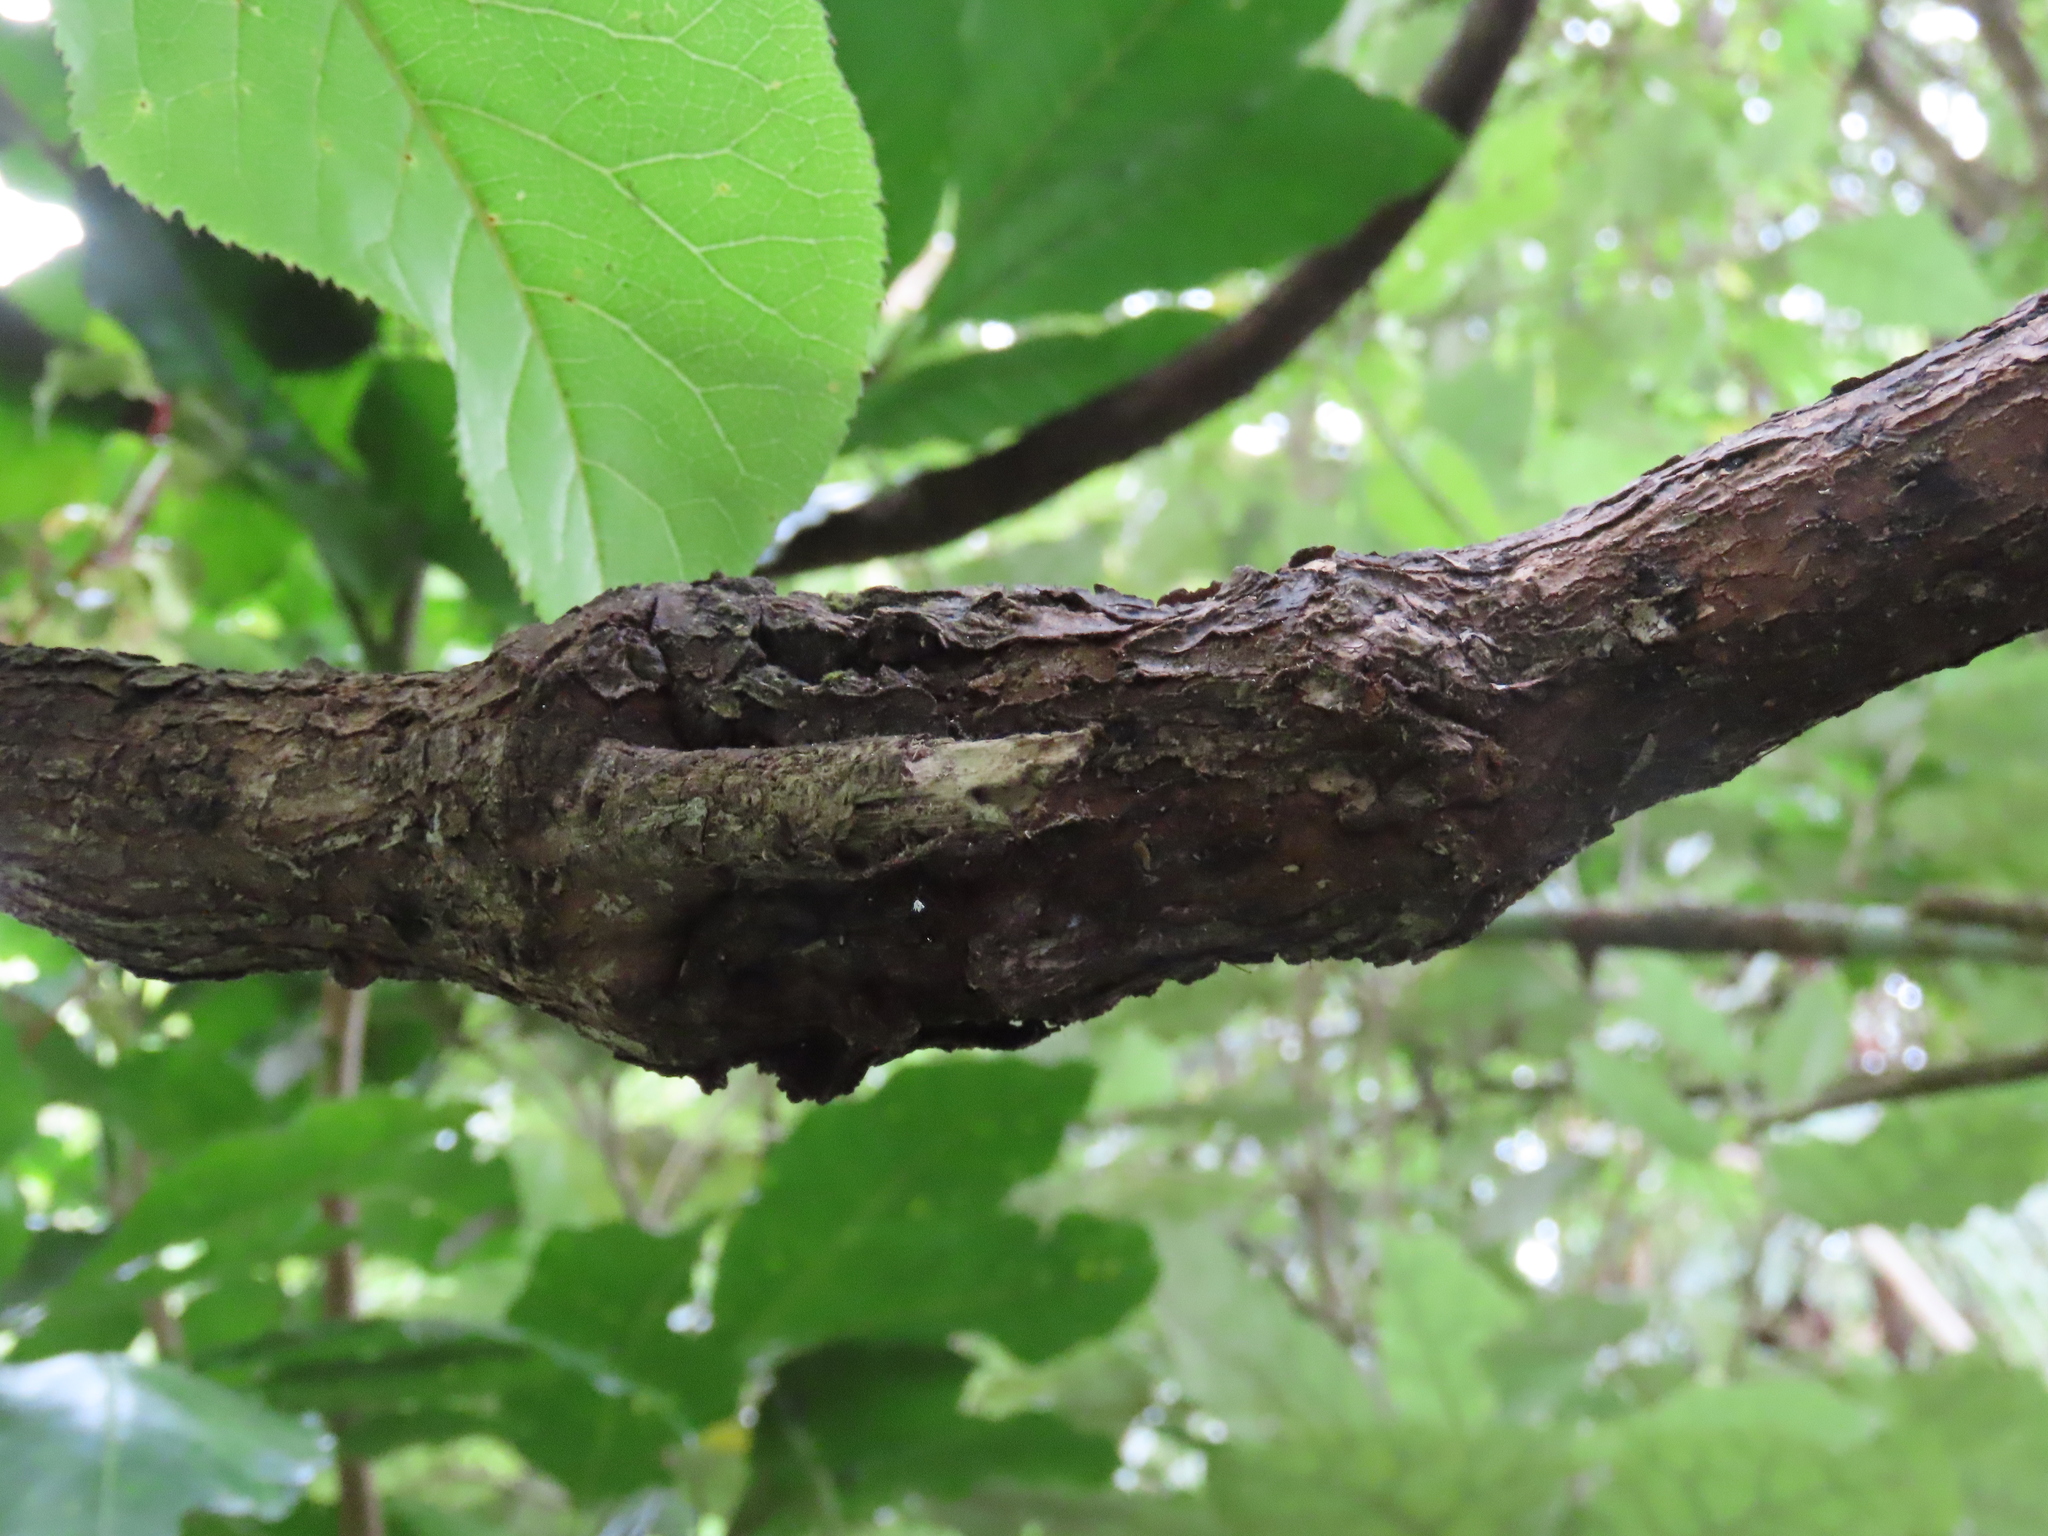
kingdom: Plantae
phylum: Tracheophyta
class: Magnoliopsida
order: Rosales
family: Rosaceae
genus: Rubus
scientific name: Rubus cissoides
